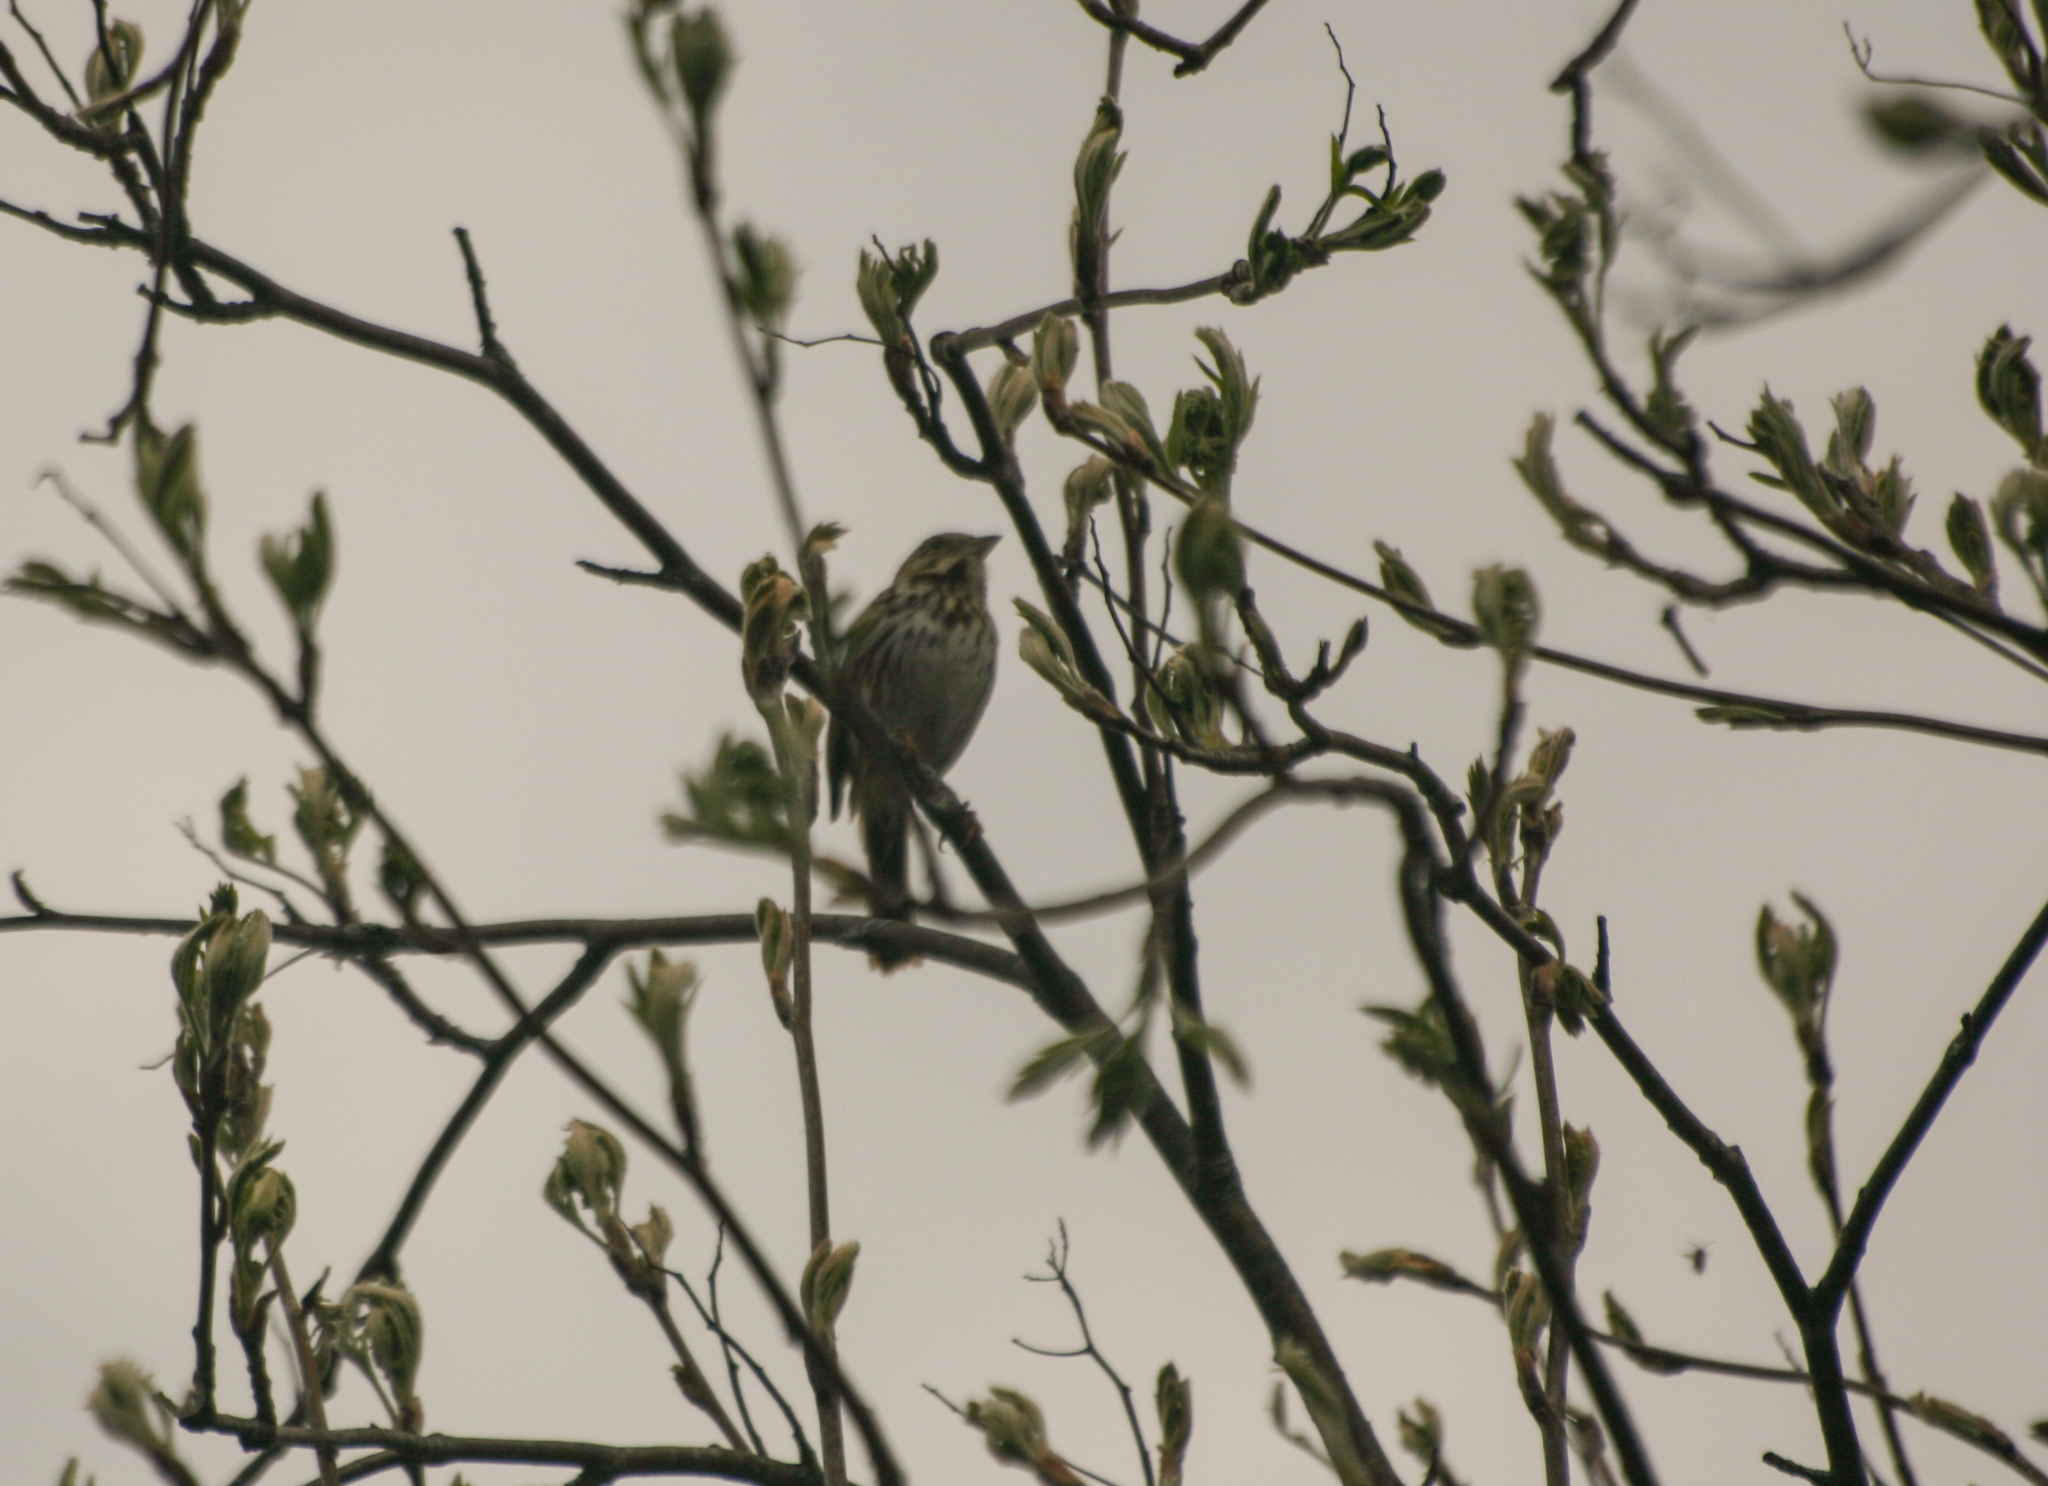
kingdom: Animalia
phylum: Chordata
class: Aves
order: Passeriformes
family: Passerellidae
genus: Melospiza
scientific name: Melospiza melodia
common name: Song sparrow
